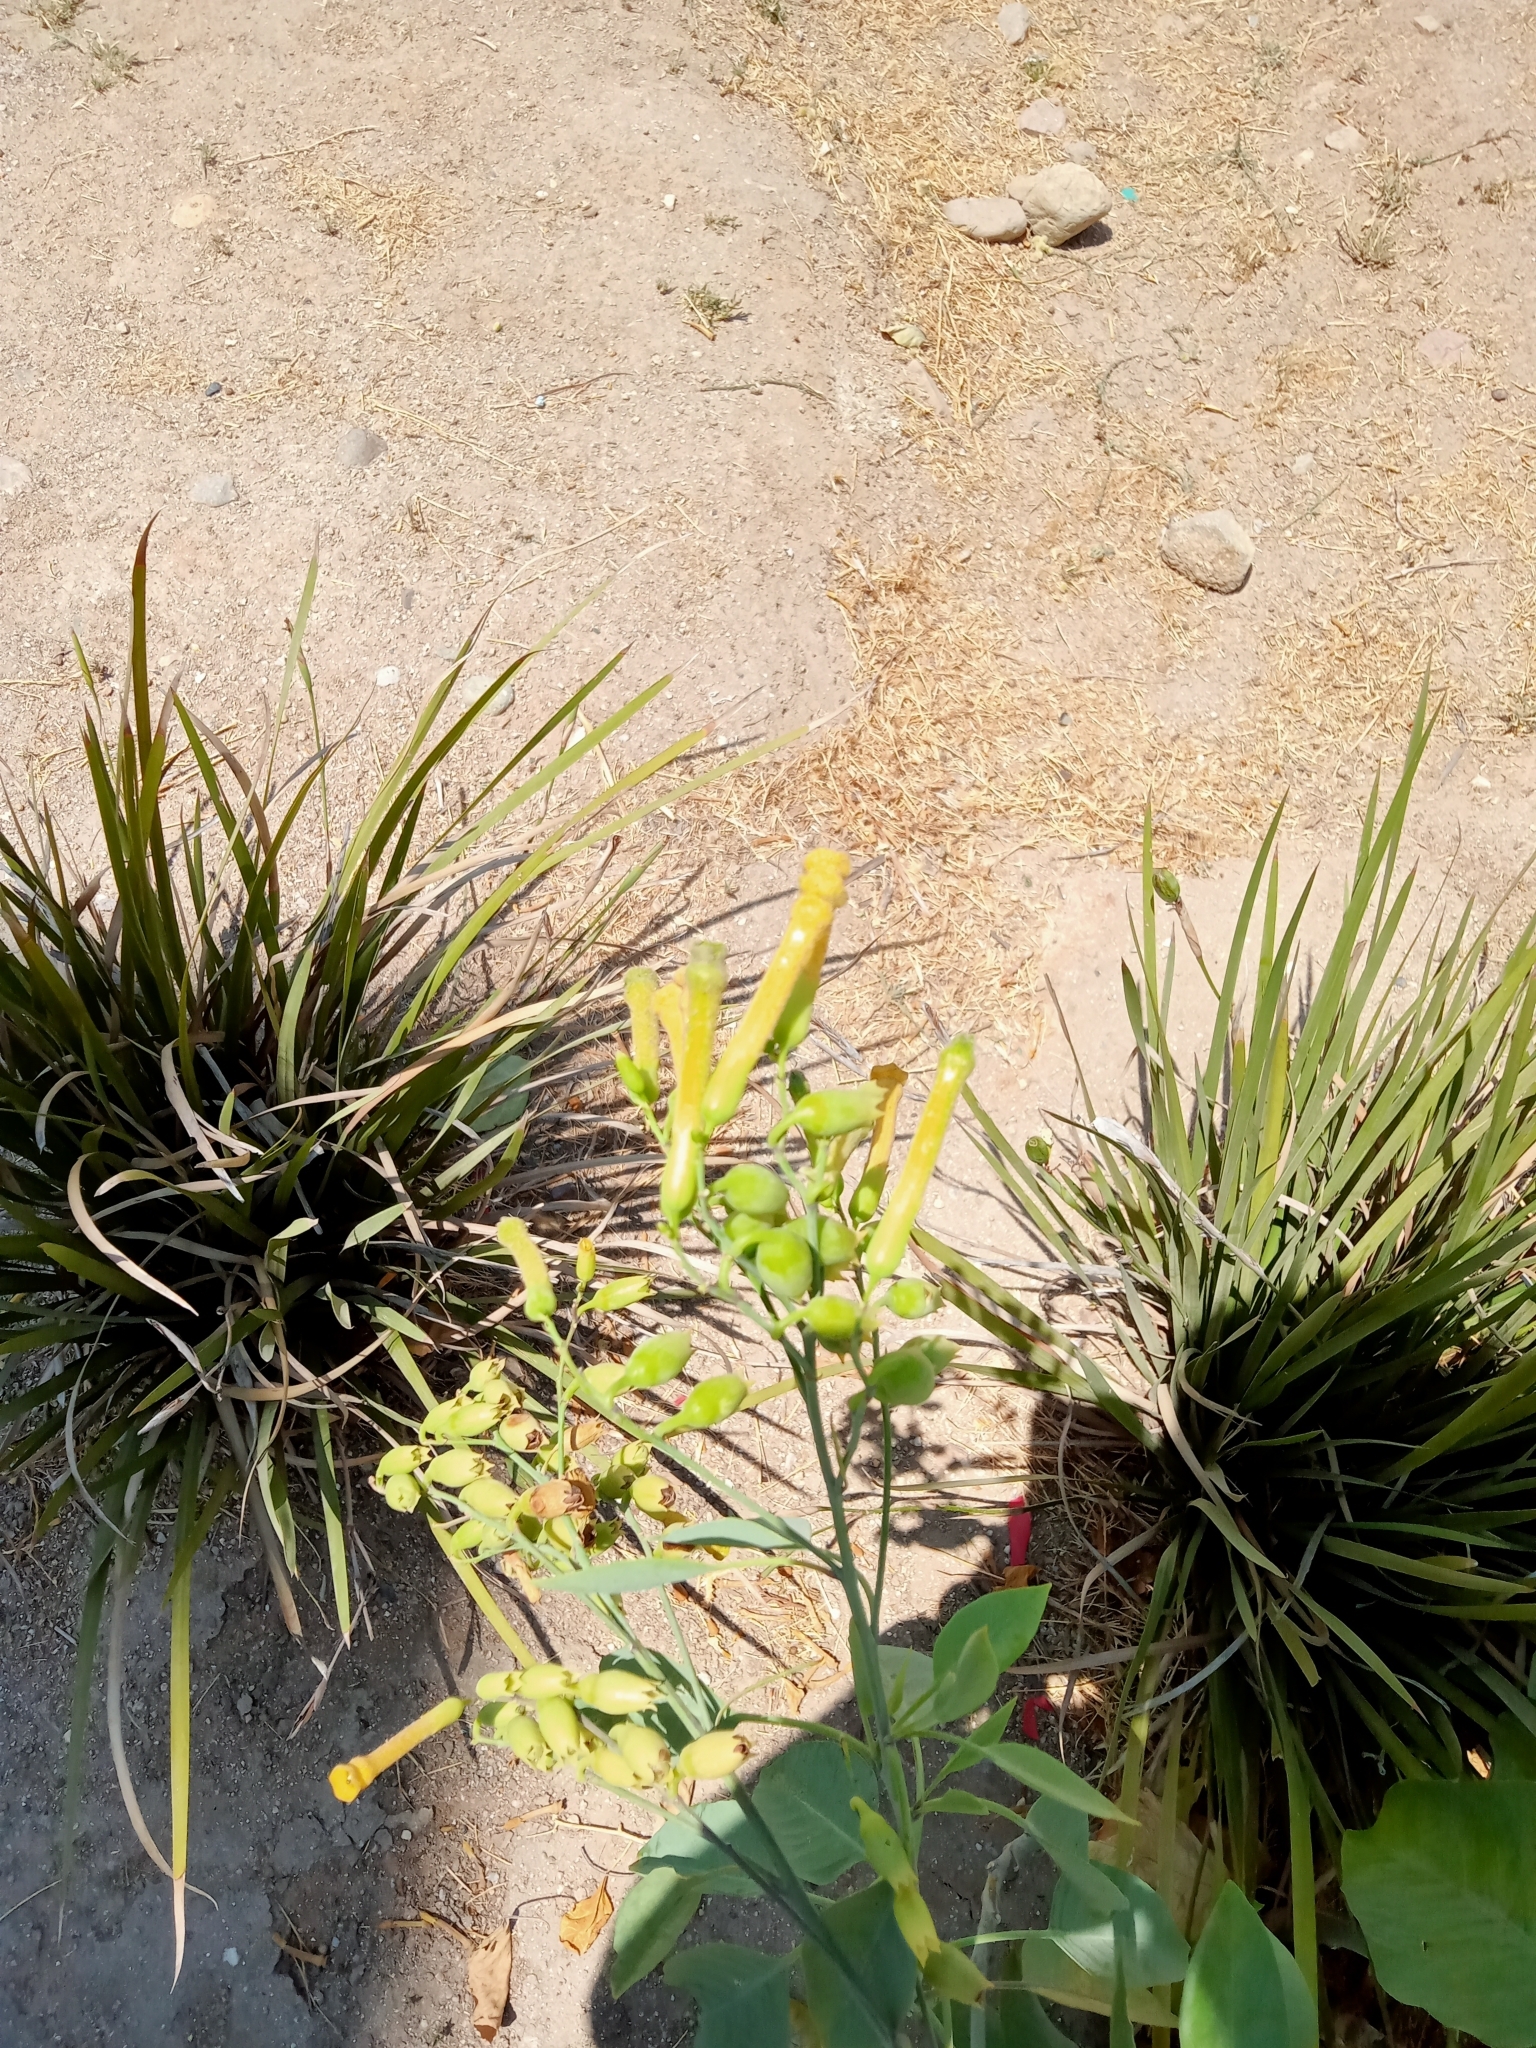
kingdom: Plantae
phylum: Tracheophyta
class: Magnoliopsida
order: Solanales
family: Solanaceae
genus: Nicotiana
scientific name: Nicotiana glauca
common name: Tree tobacco
